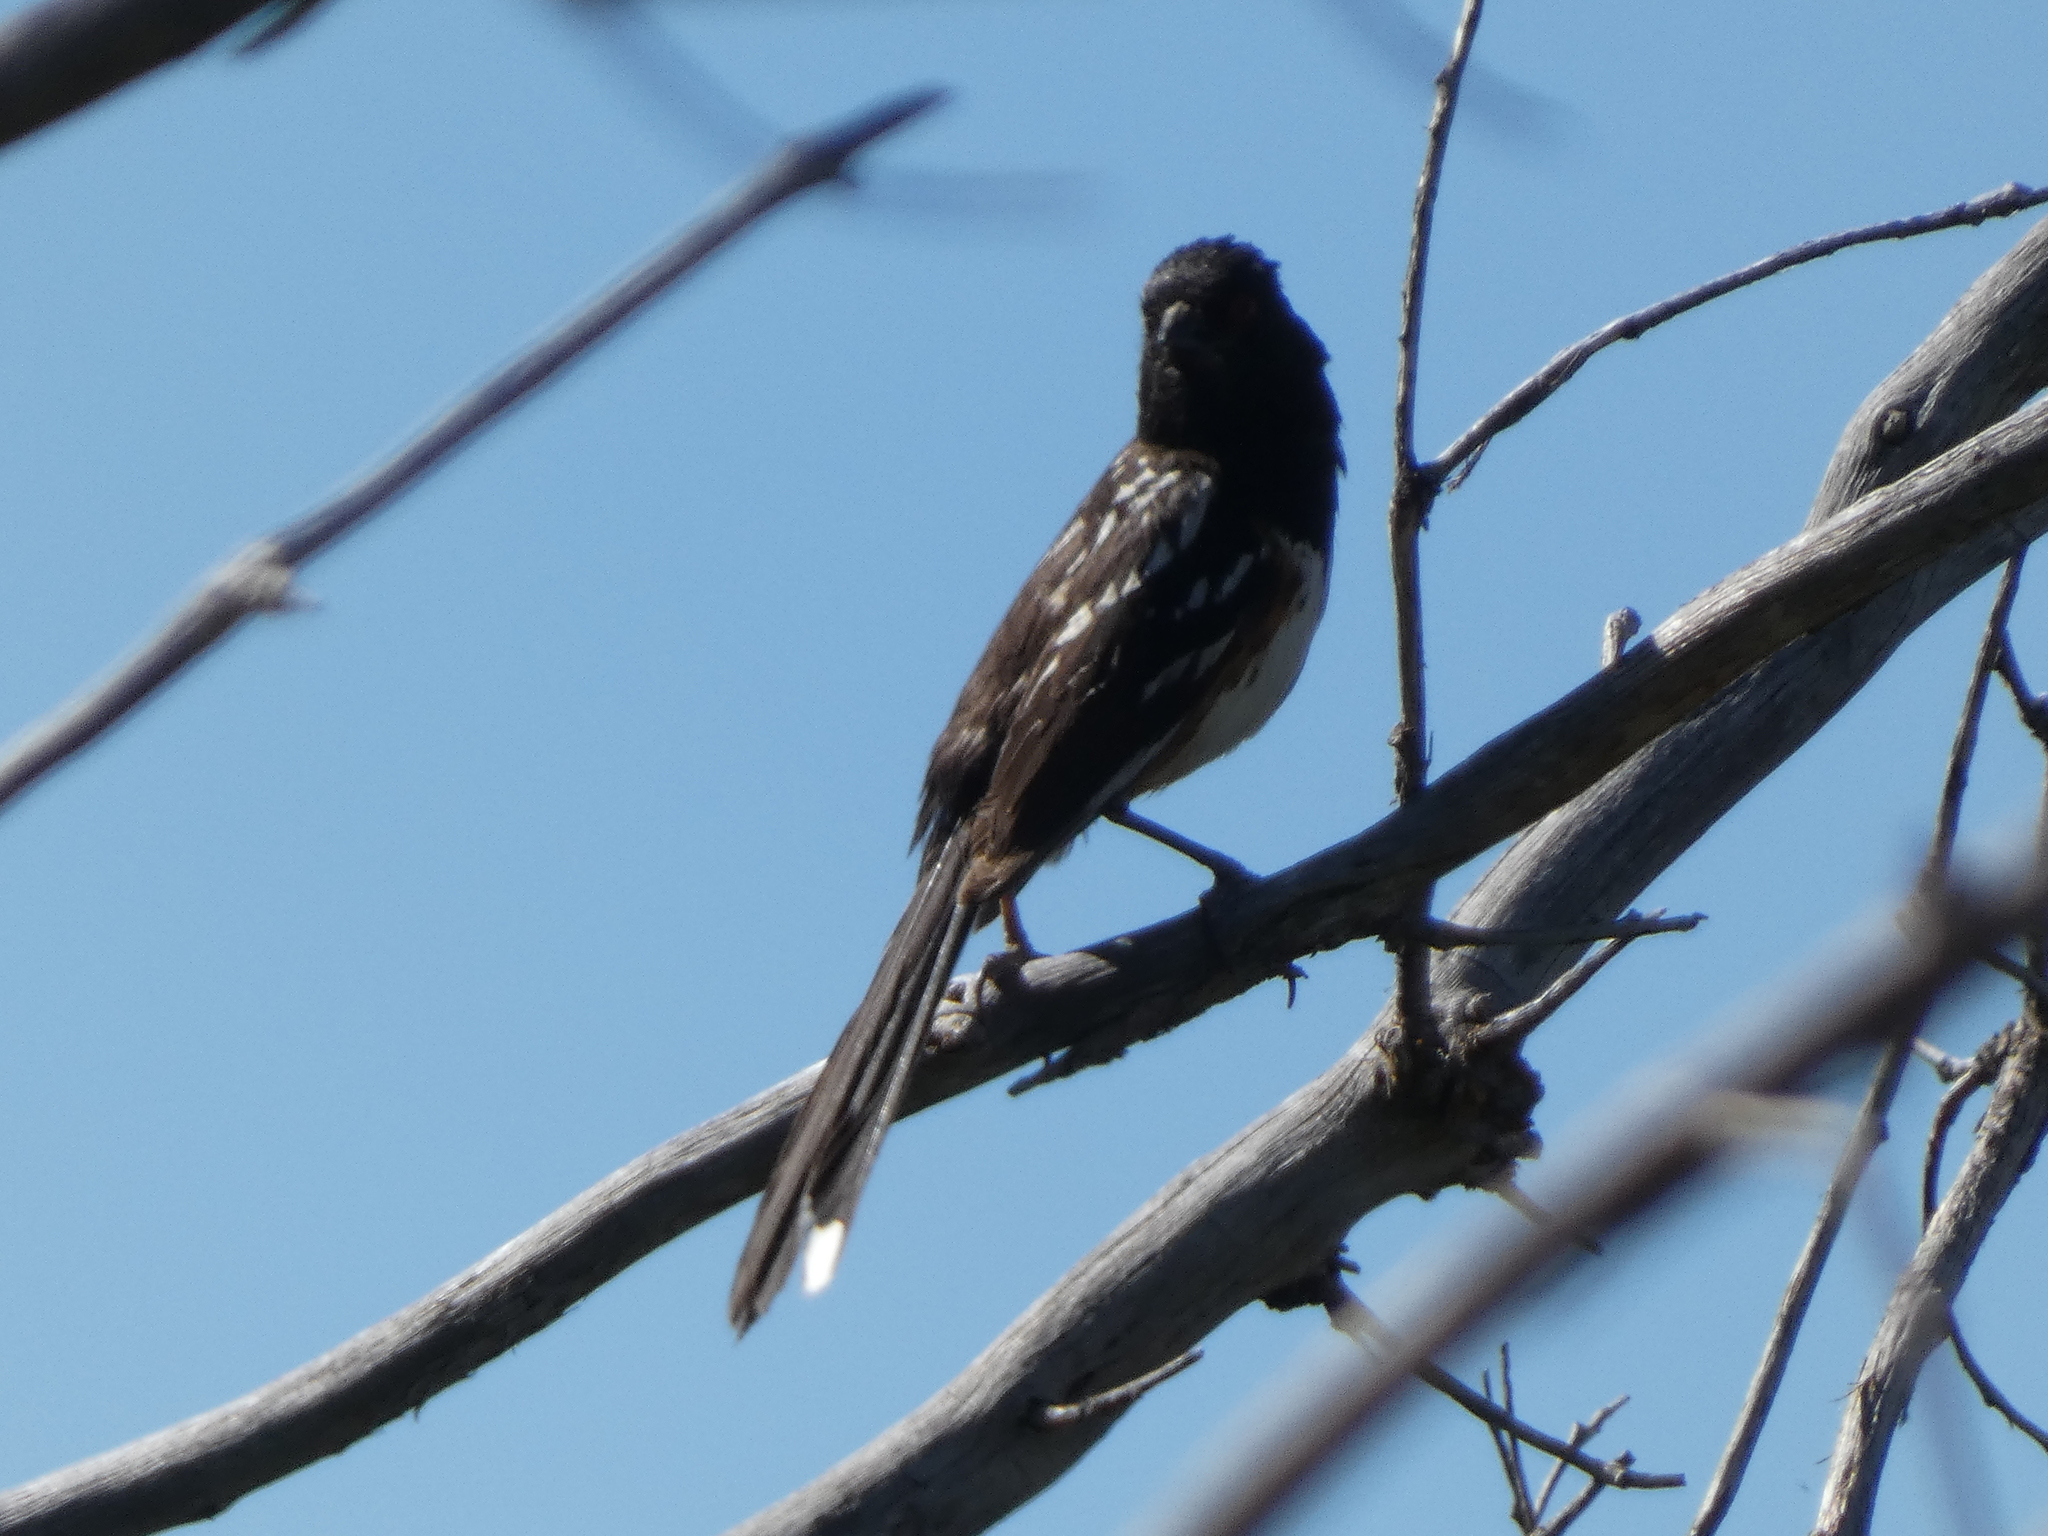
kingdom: Animalia
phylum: Chordata
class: Aves
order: Passeriformes
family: Passerellidae
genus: Pipilo
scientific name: Pipilo maculatus
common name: Spotted towhee
